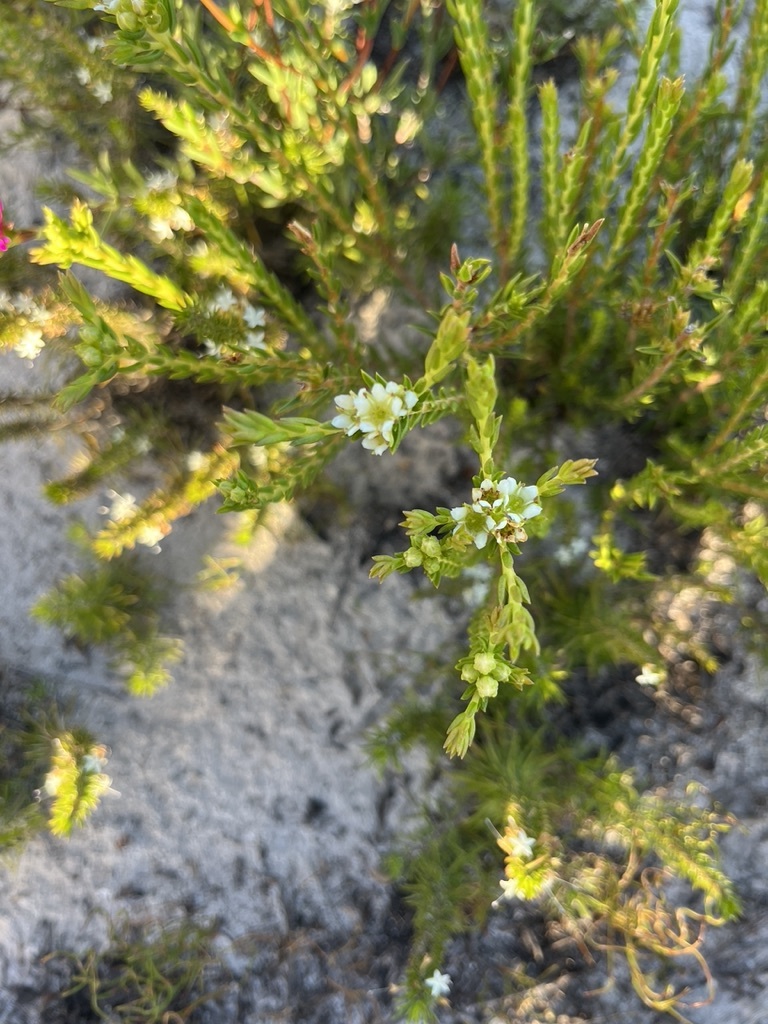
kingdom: Plantae
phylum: Tracheophyta
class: Magnoliopsida
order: Sapindales
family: Rutaceae
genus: Diosma
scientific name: Diosma oppositifolia
